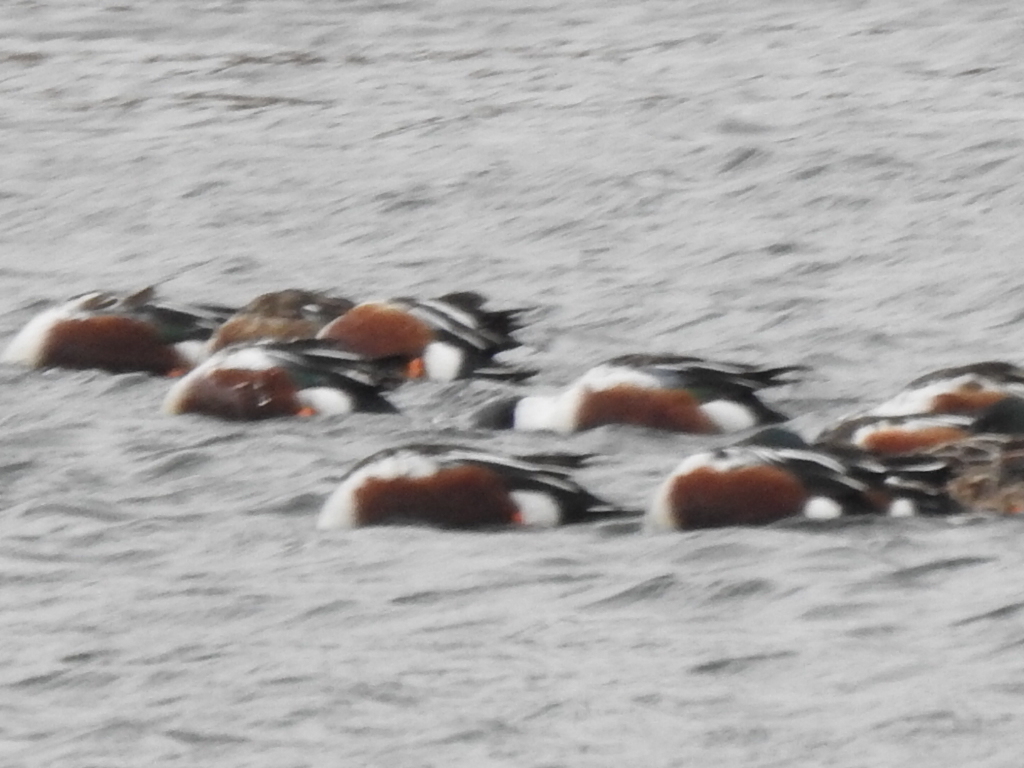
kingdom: Animalia
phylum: Chordata
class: Aves
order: Anseriformes
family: Anatidae
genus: Spatula
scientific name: Spatula clypeata
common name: Northern shoveler
